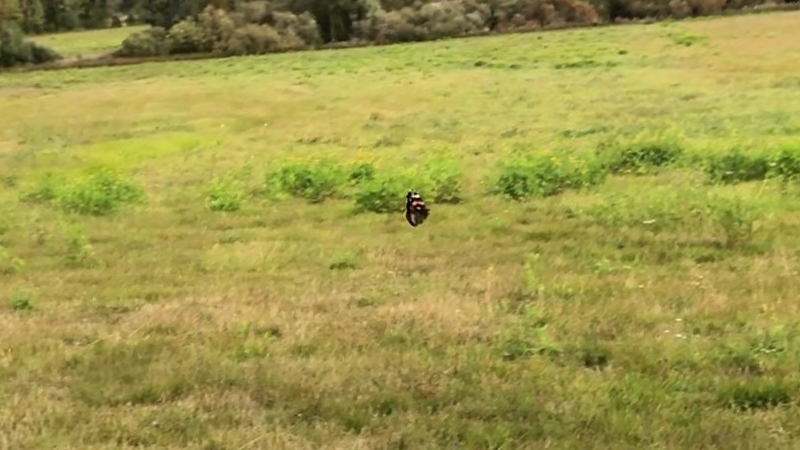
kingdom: Animalia
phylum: Arthropoda
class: Insecta
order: Lepidoptera
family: Nymphalidae
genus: Vanessa
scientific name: Vanessa atalanta
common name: Red admiral
